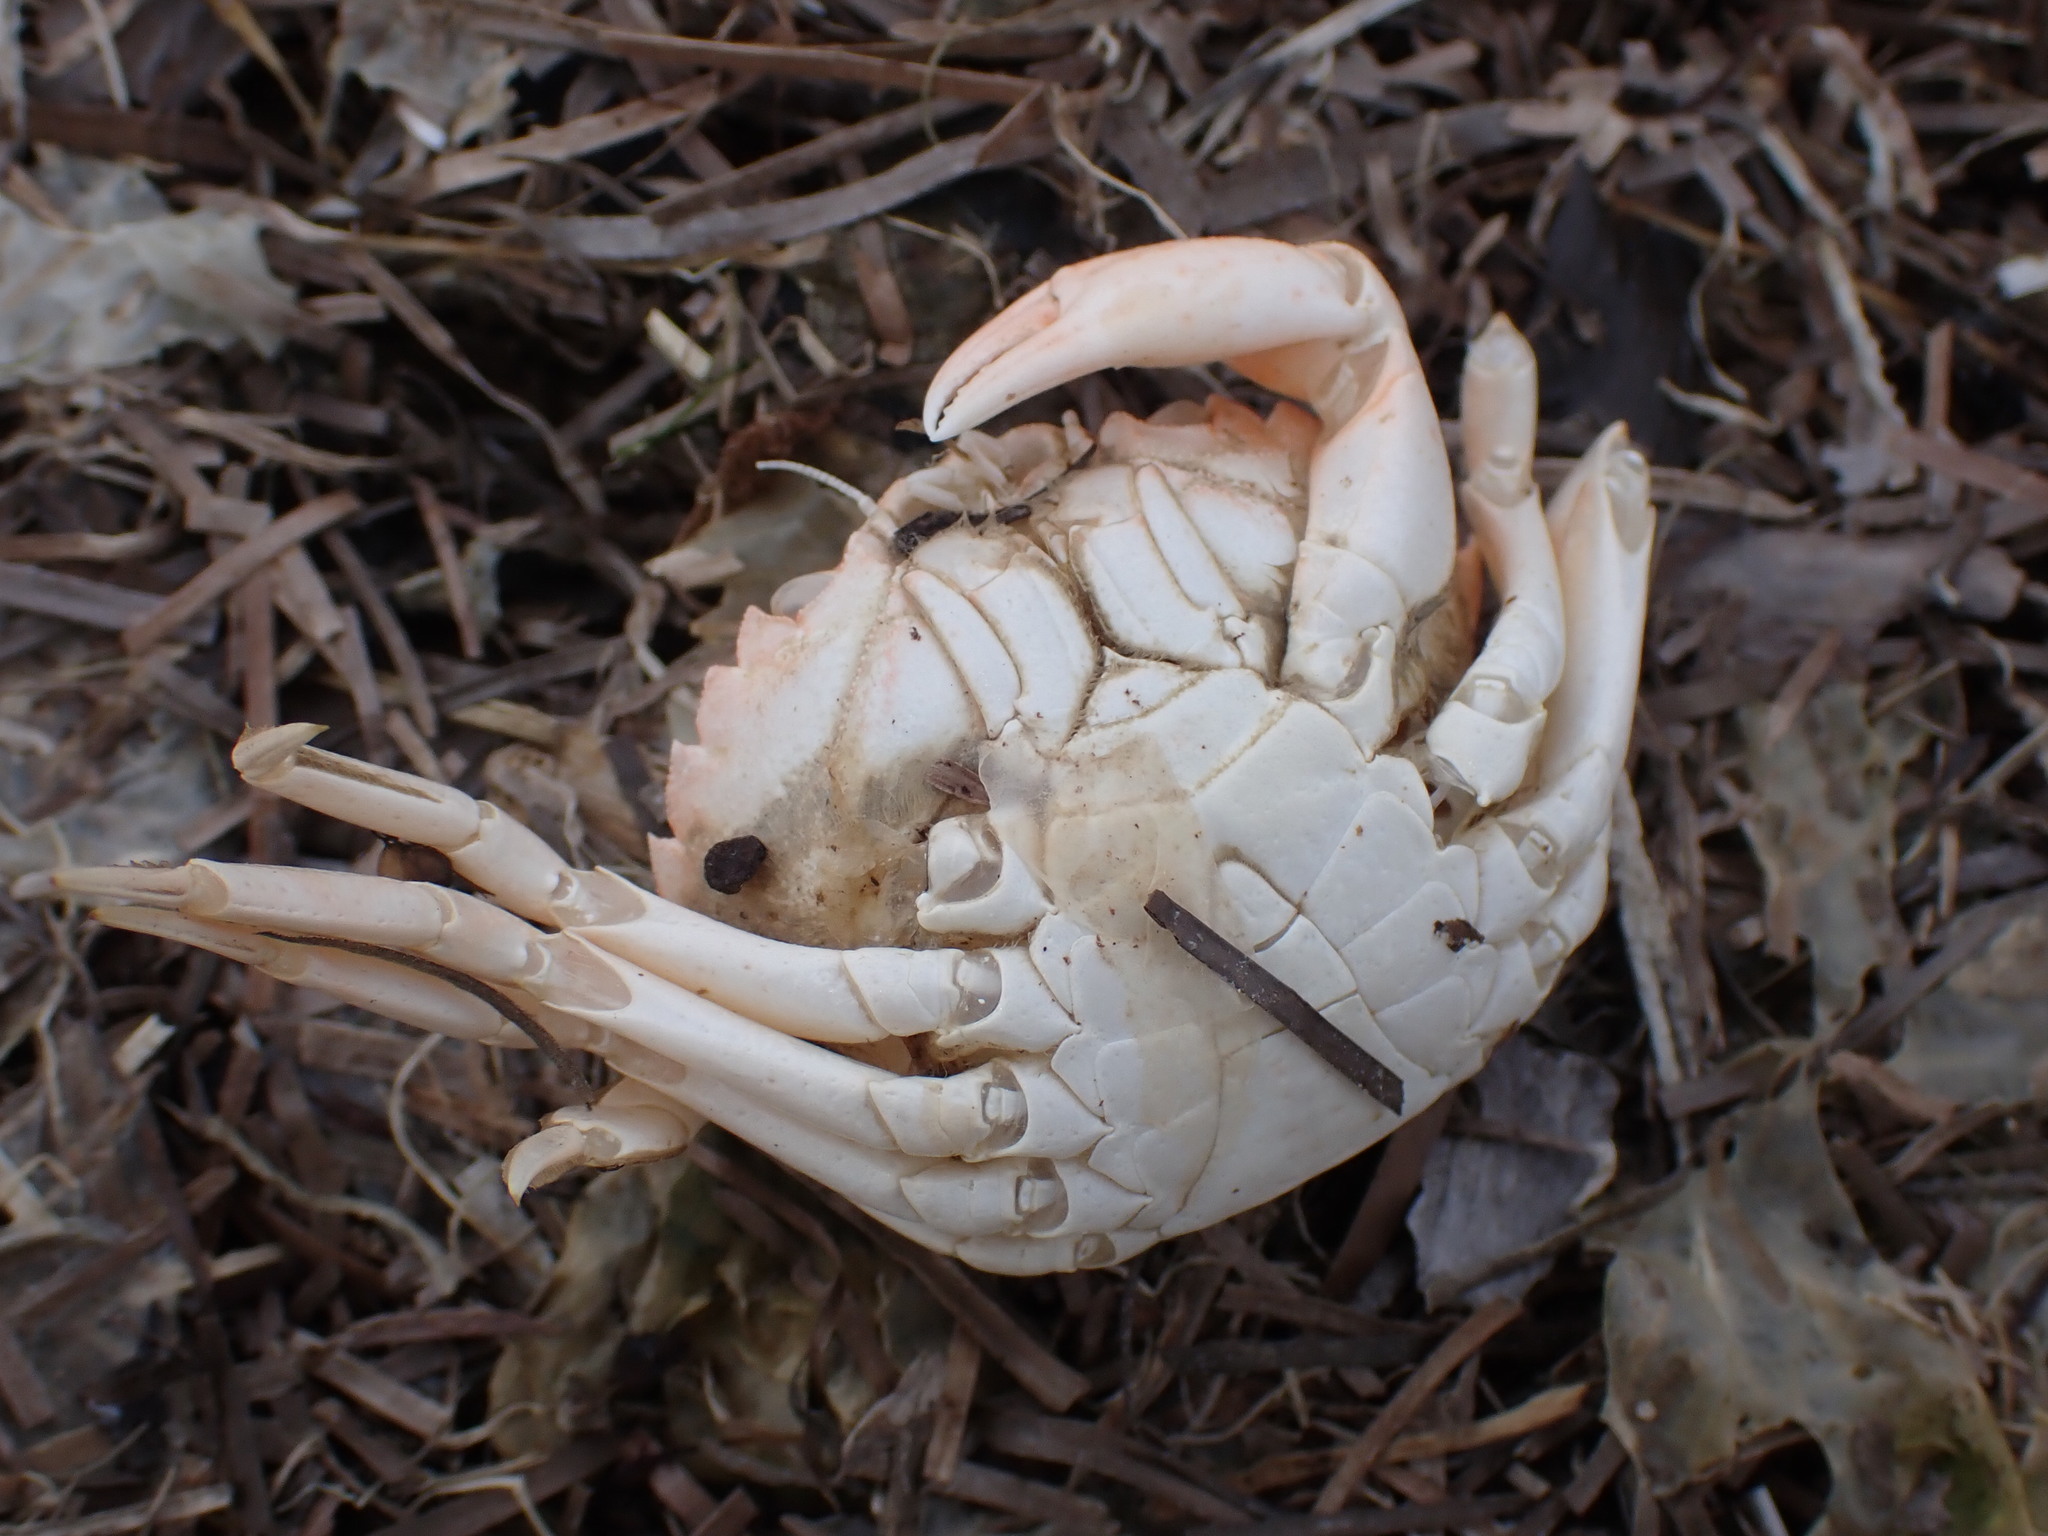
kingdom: Animalia
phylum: Arthropoda
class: Malacostraca
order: Decapoda
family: Carcinidae
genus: Carcinus
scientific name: Carcinus maenas
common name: European green crab
